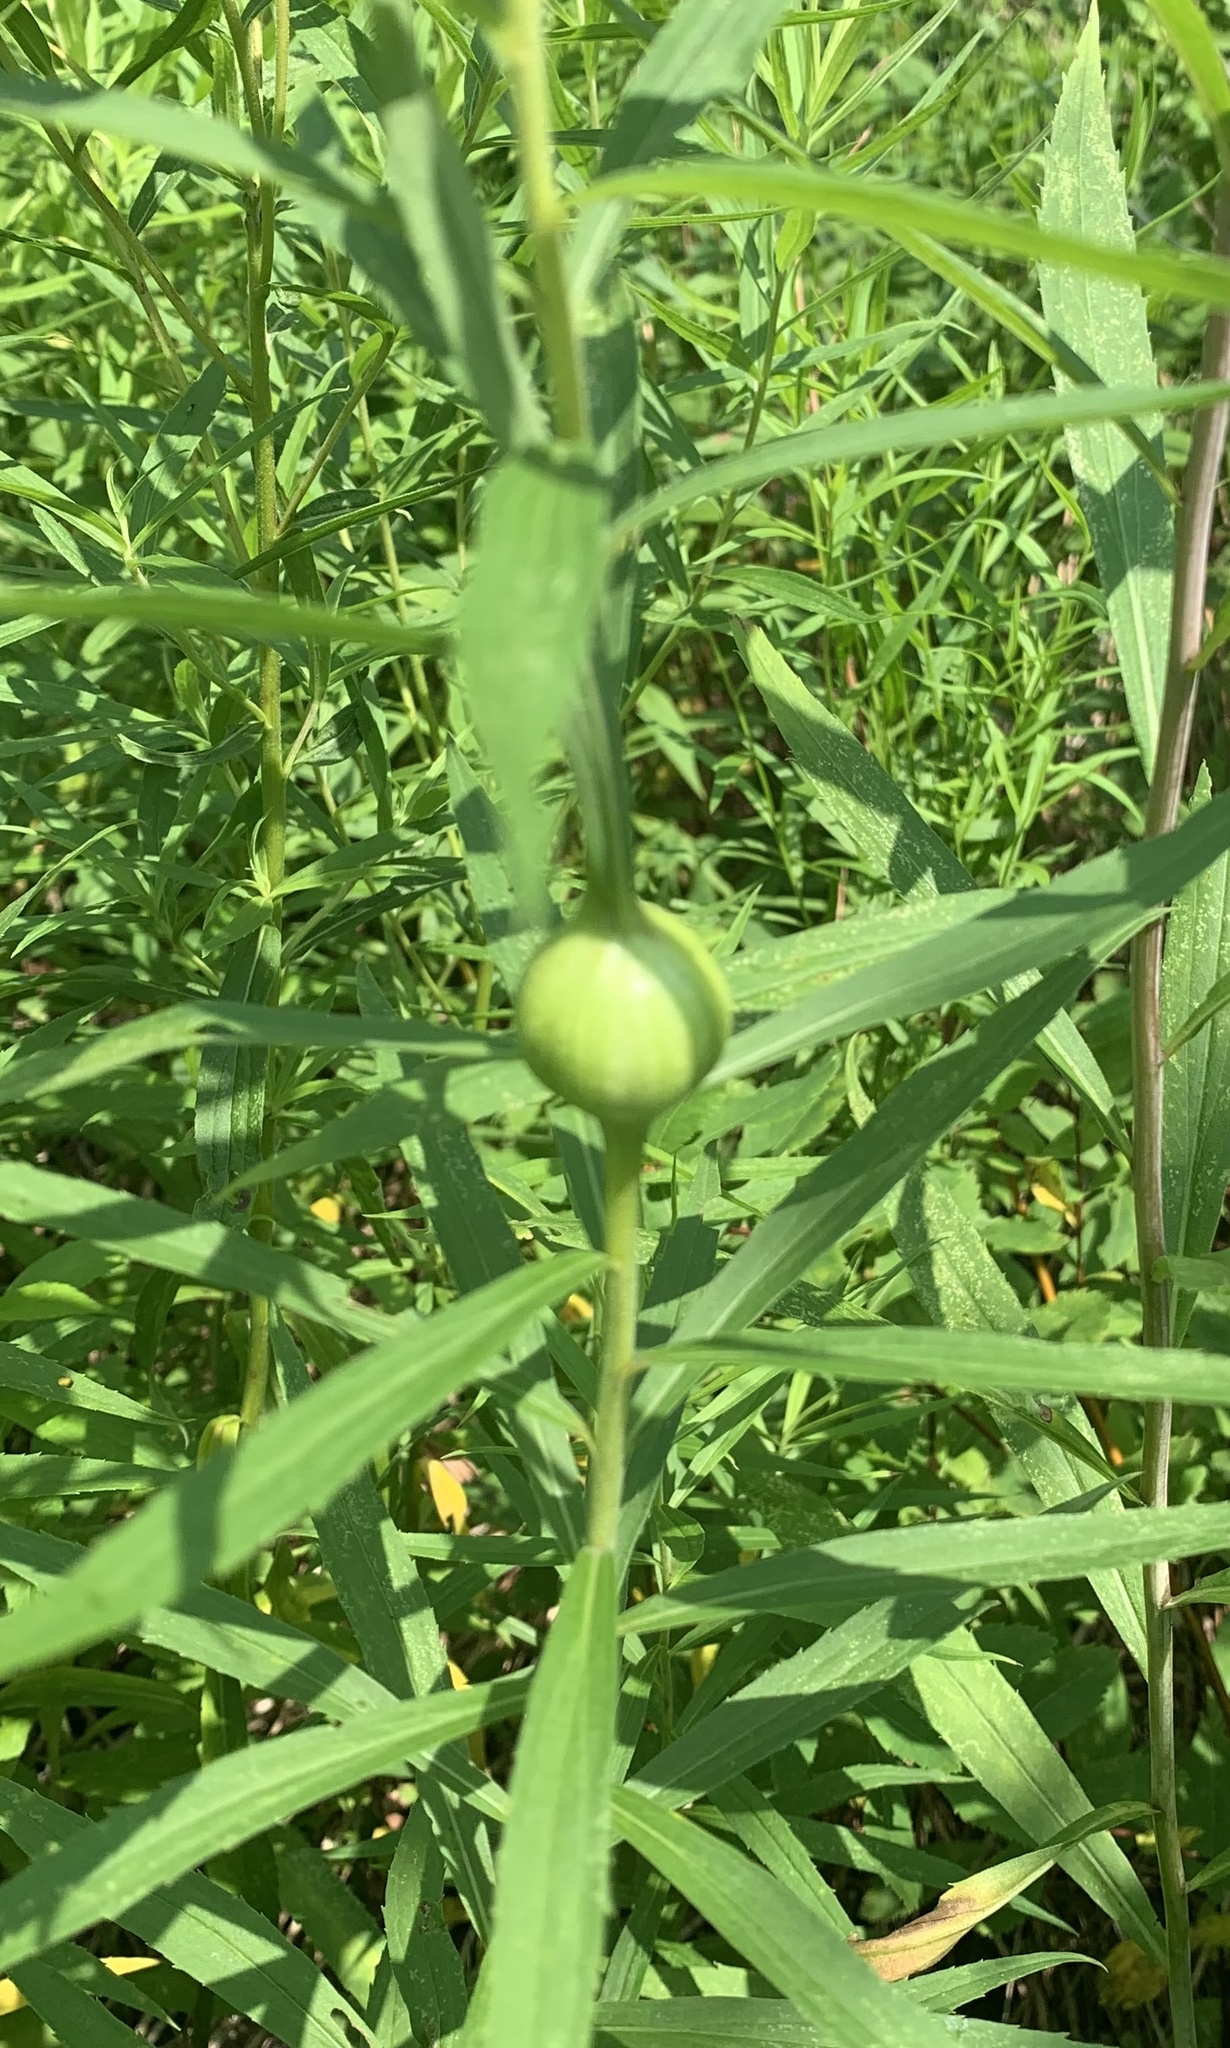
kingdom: Animalia
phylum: Arthropoda
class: Insecta
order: Diptera
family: Tephritidae
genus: Eurosta
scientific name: Eurosta solidaginis
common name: Goldenrod gall fly
